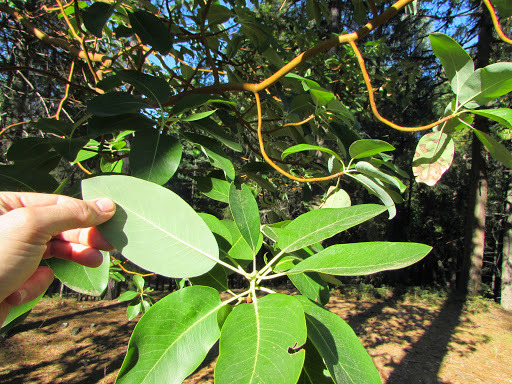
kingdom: Plantae
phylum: Tracheophyta
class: Magnoliopsida
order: Ericales
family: Ericaceae
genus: Arbutus
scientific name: Arbutus menziesii
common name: Pacific madrone
